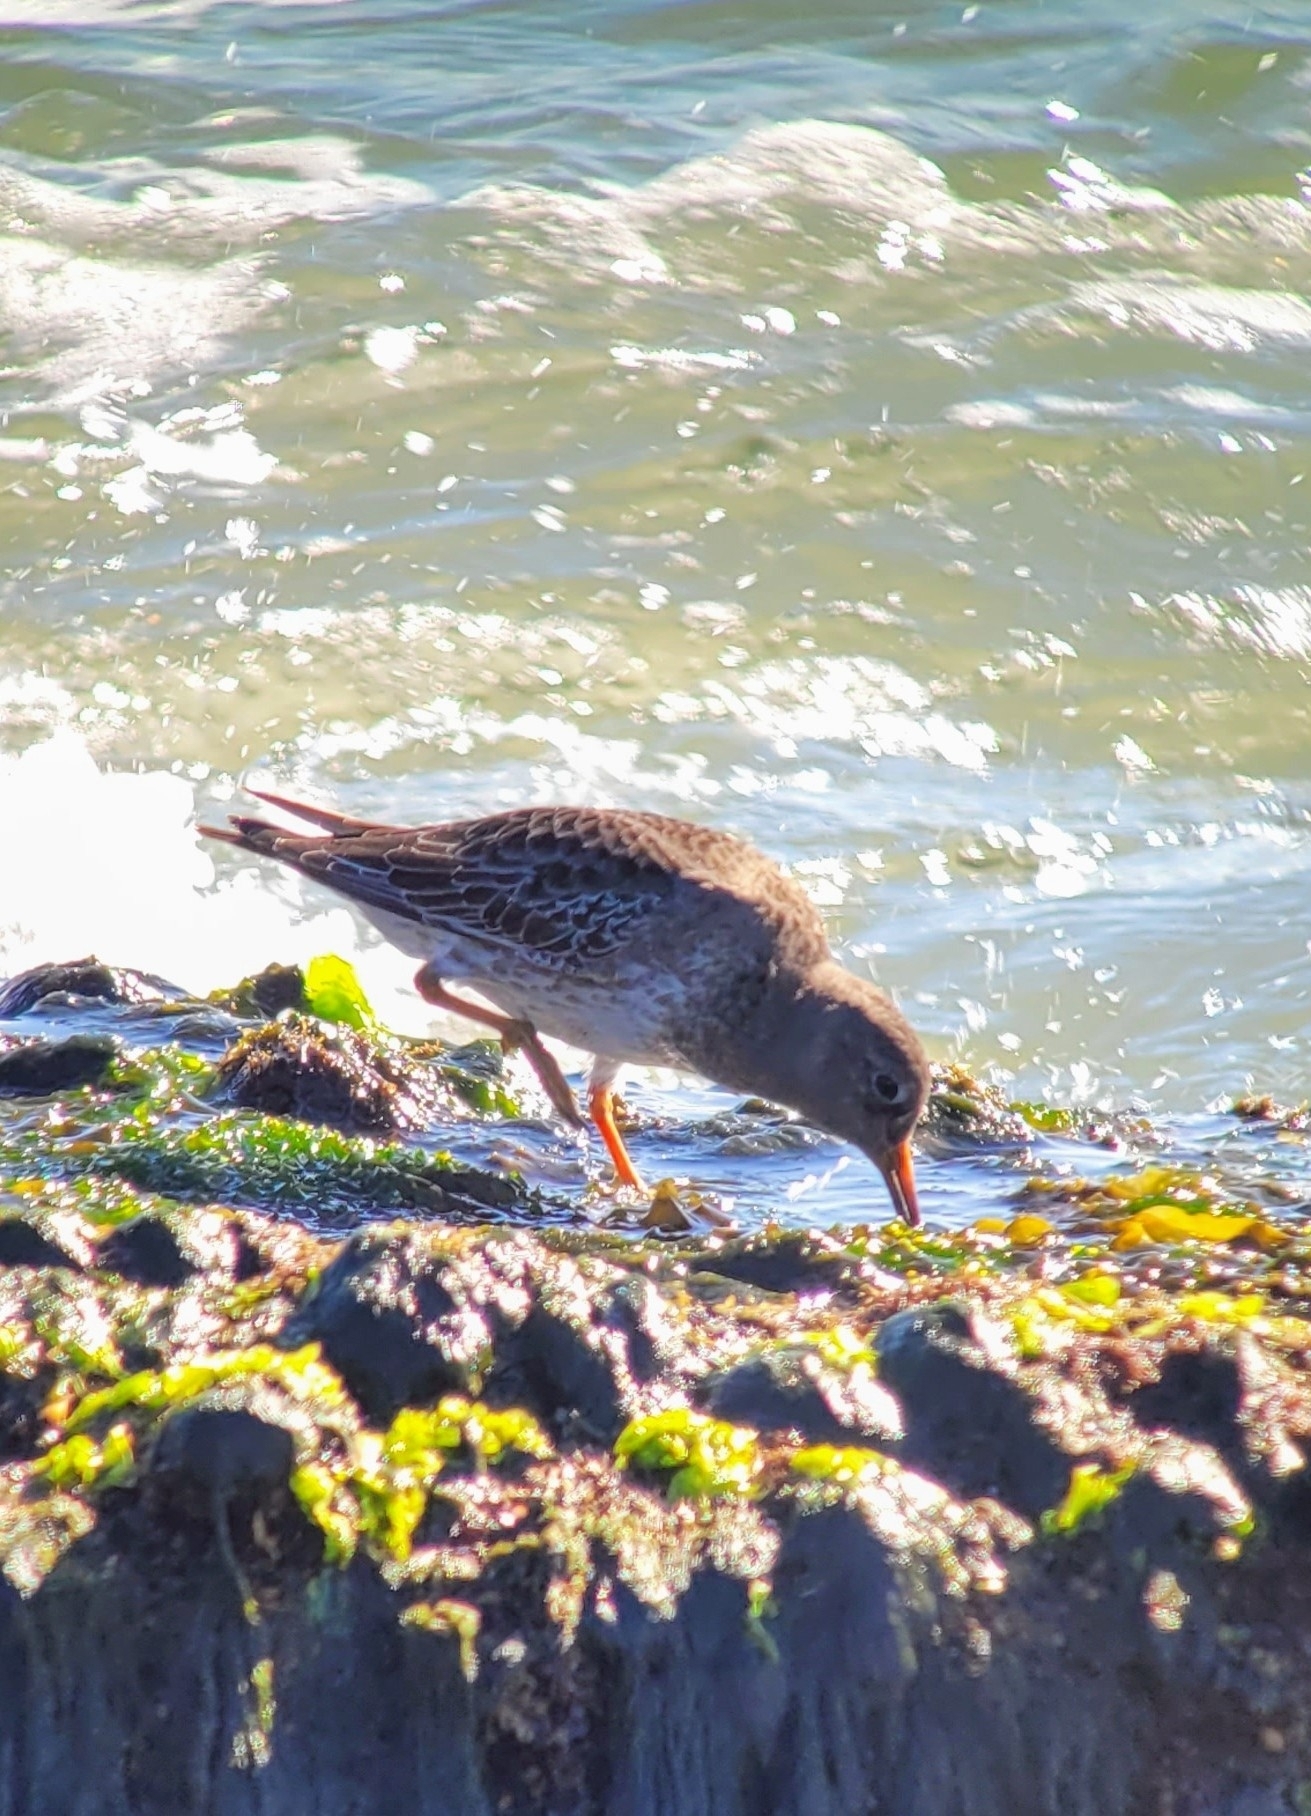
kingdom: Animalia
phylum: Chordata
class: Aves
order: Charadriiformes
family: Scolopacidae
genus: Calidris
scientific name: Calidris maritima
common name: Purple sandpiper
